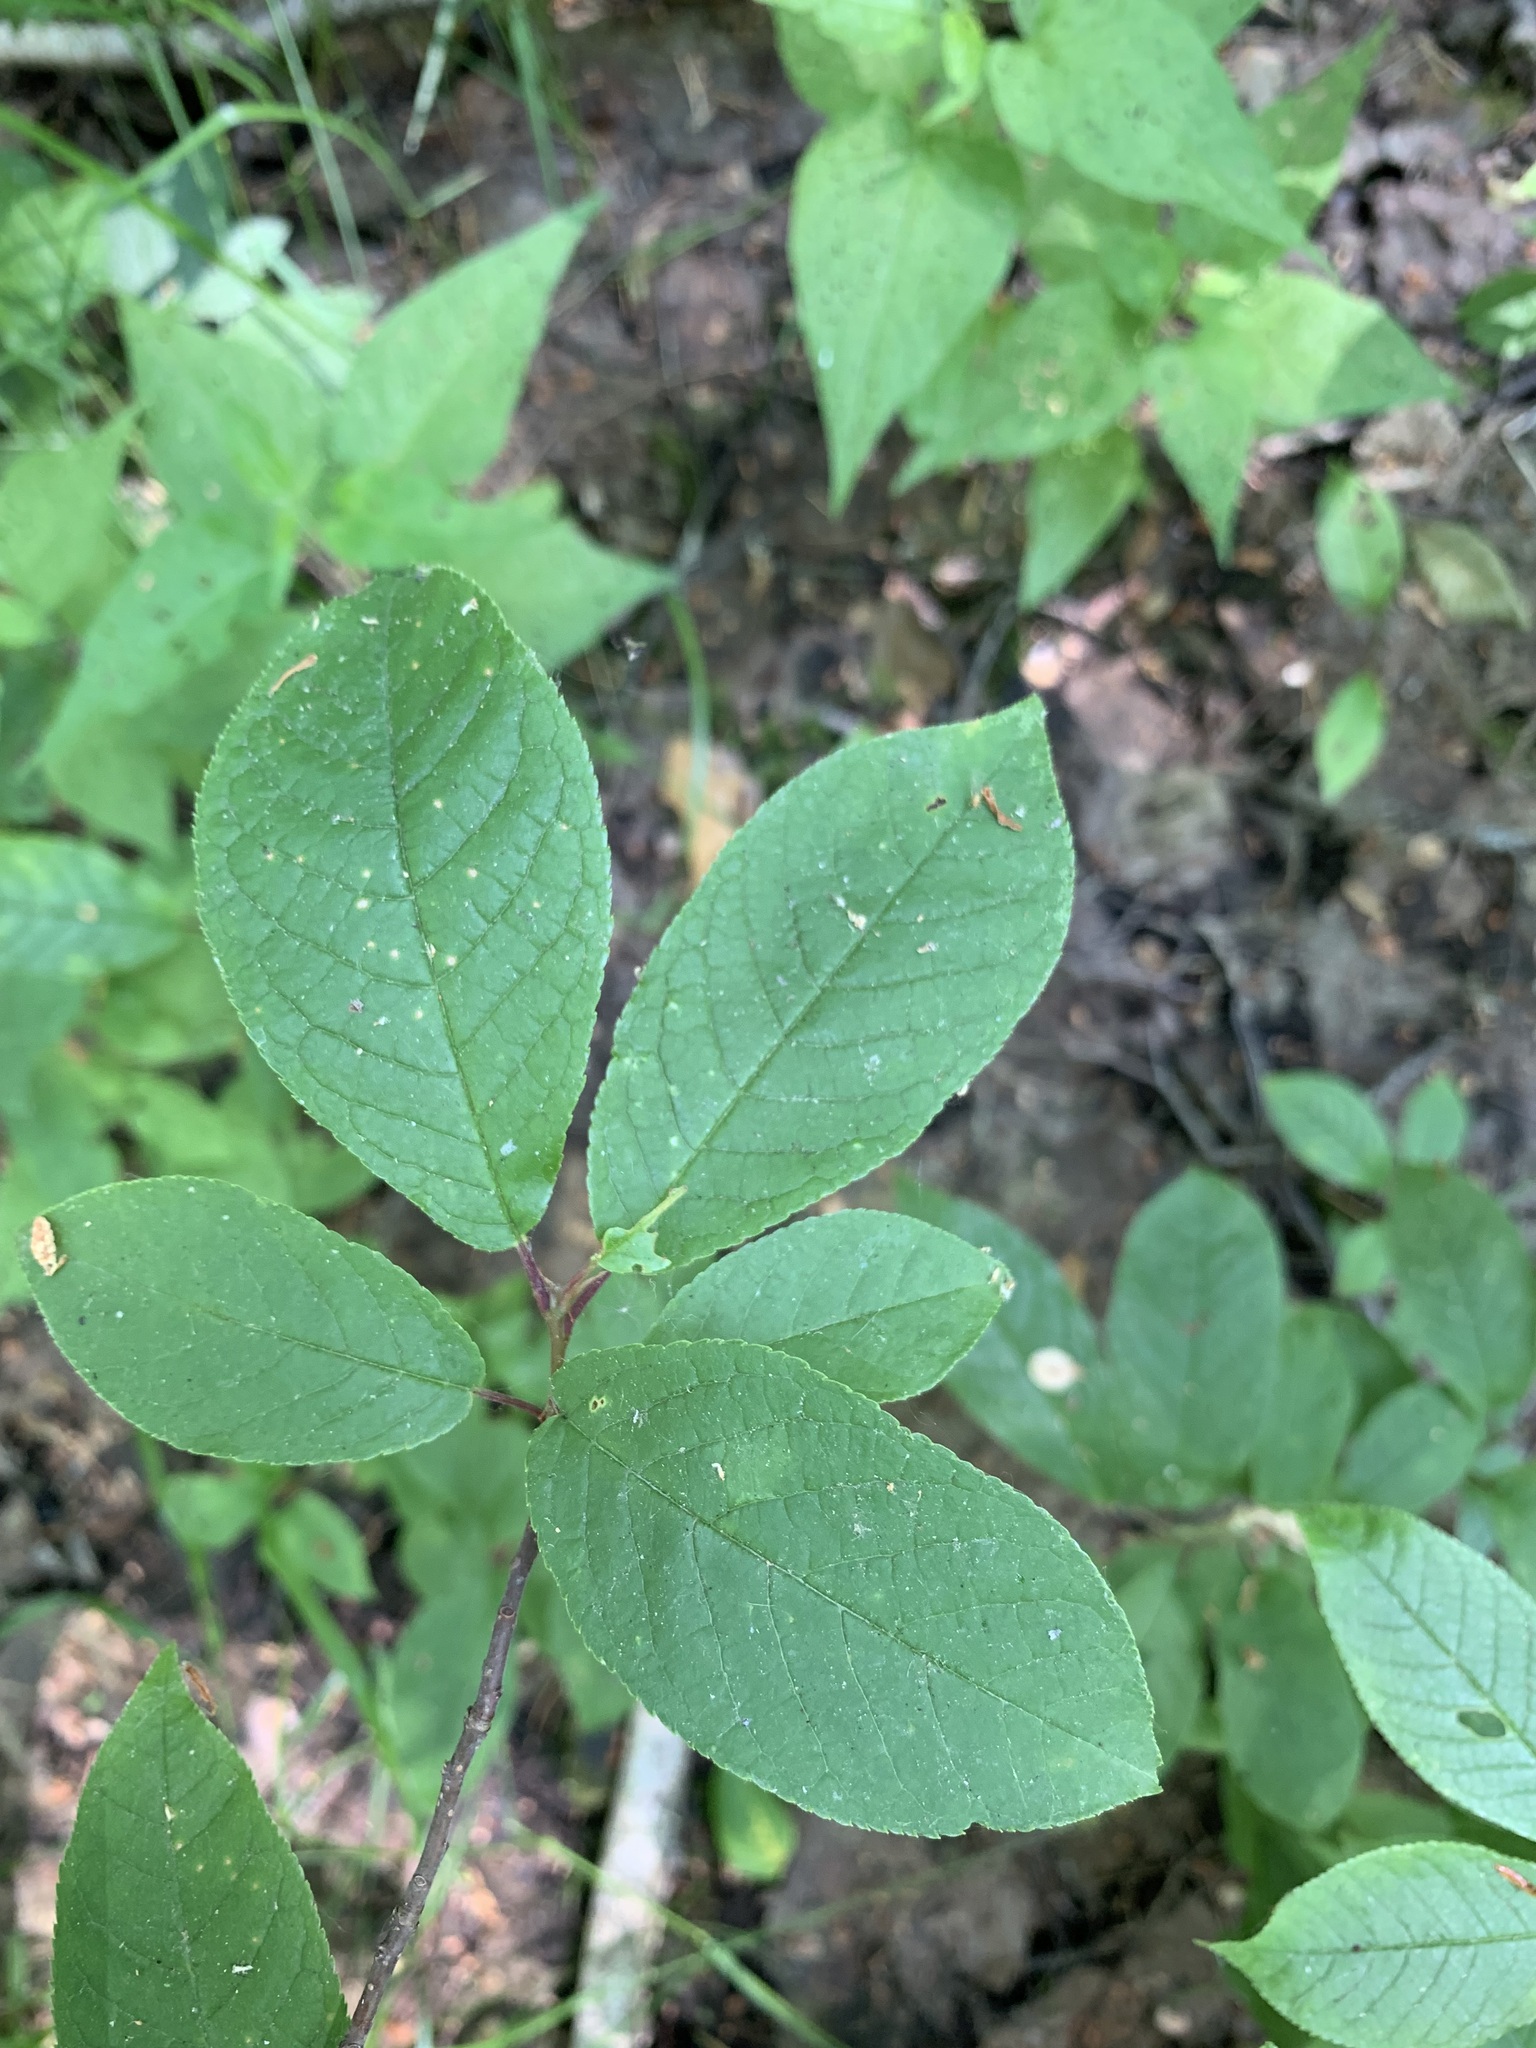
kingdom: Plantae
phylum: Tracheophyta
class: Magnoliopsida
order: Rosales
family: Rosaceae
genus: Prunus
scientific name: Prunus padus
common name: Bird cherry
